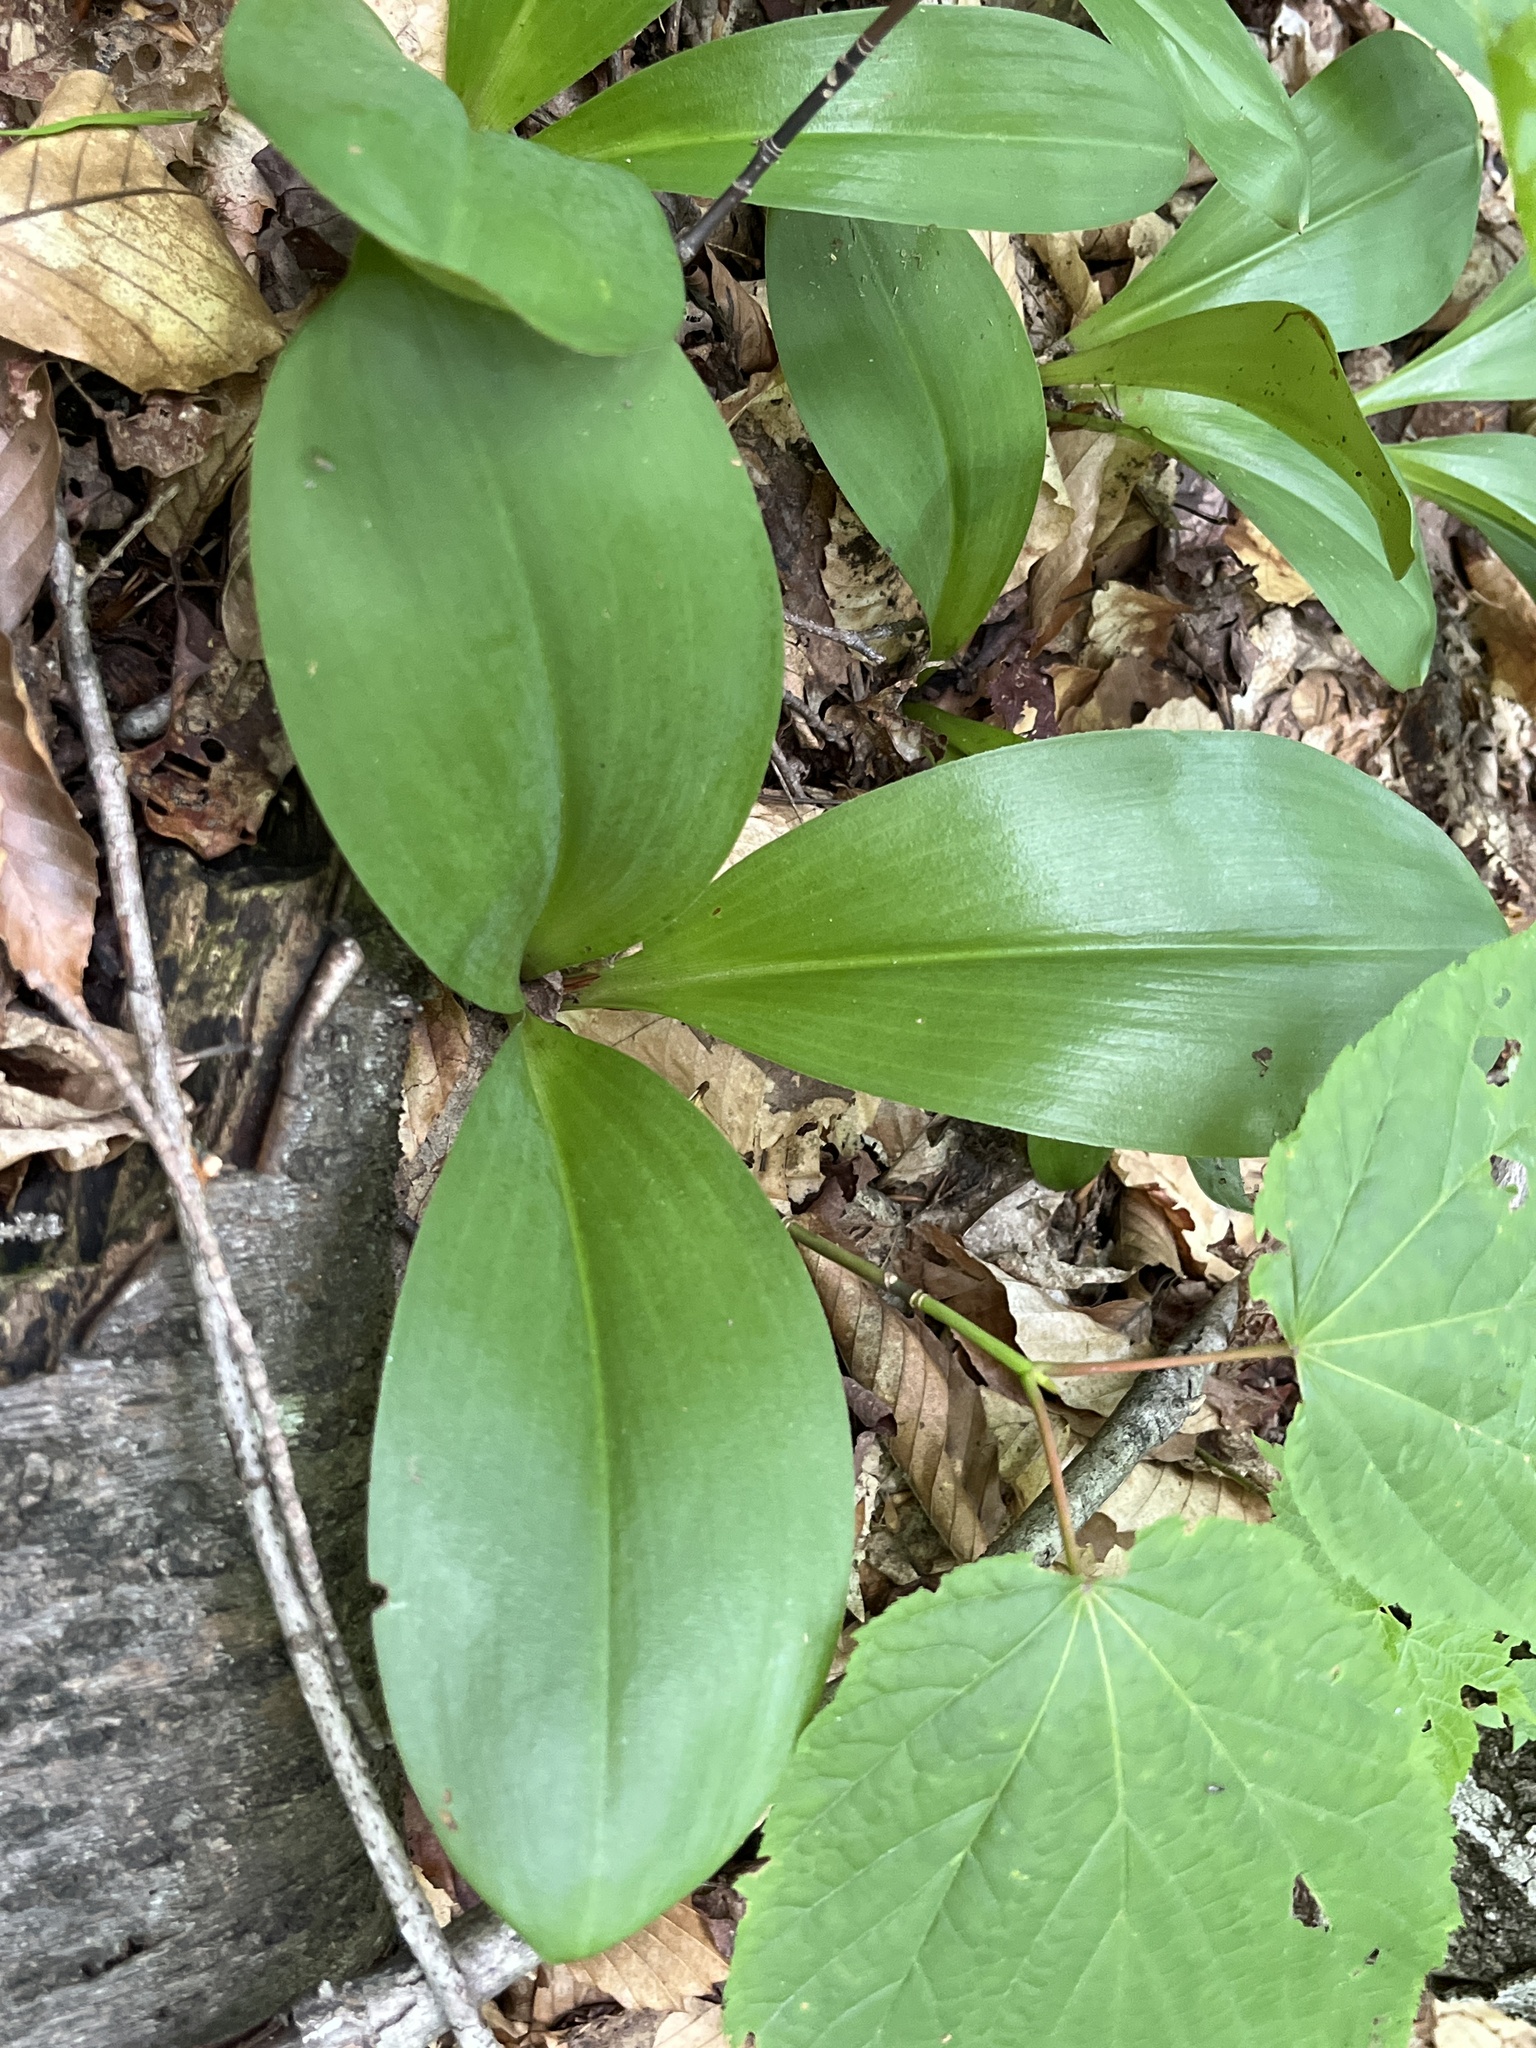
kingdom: Plantae
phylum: Tracheophyta
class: Liliopsida
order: Liliales
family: Liliaceae
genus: Clintonia
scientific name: Clintonia borealis
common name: Yellow clintonia
